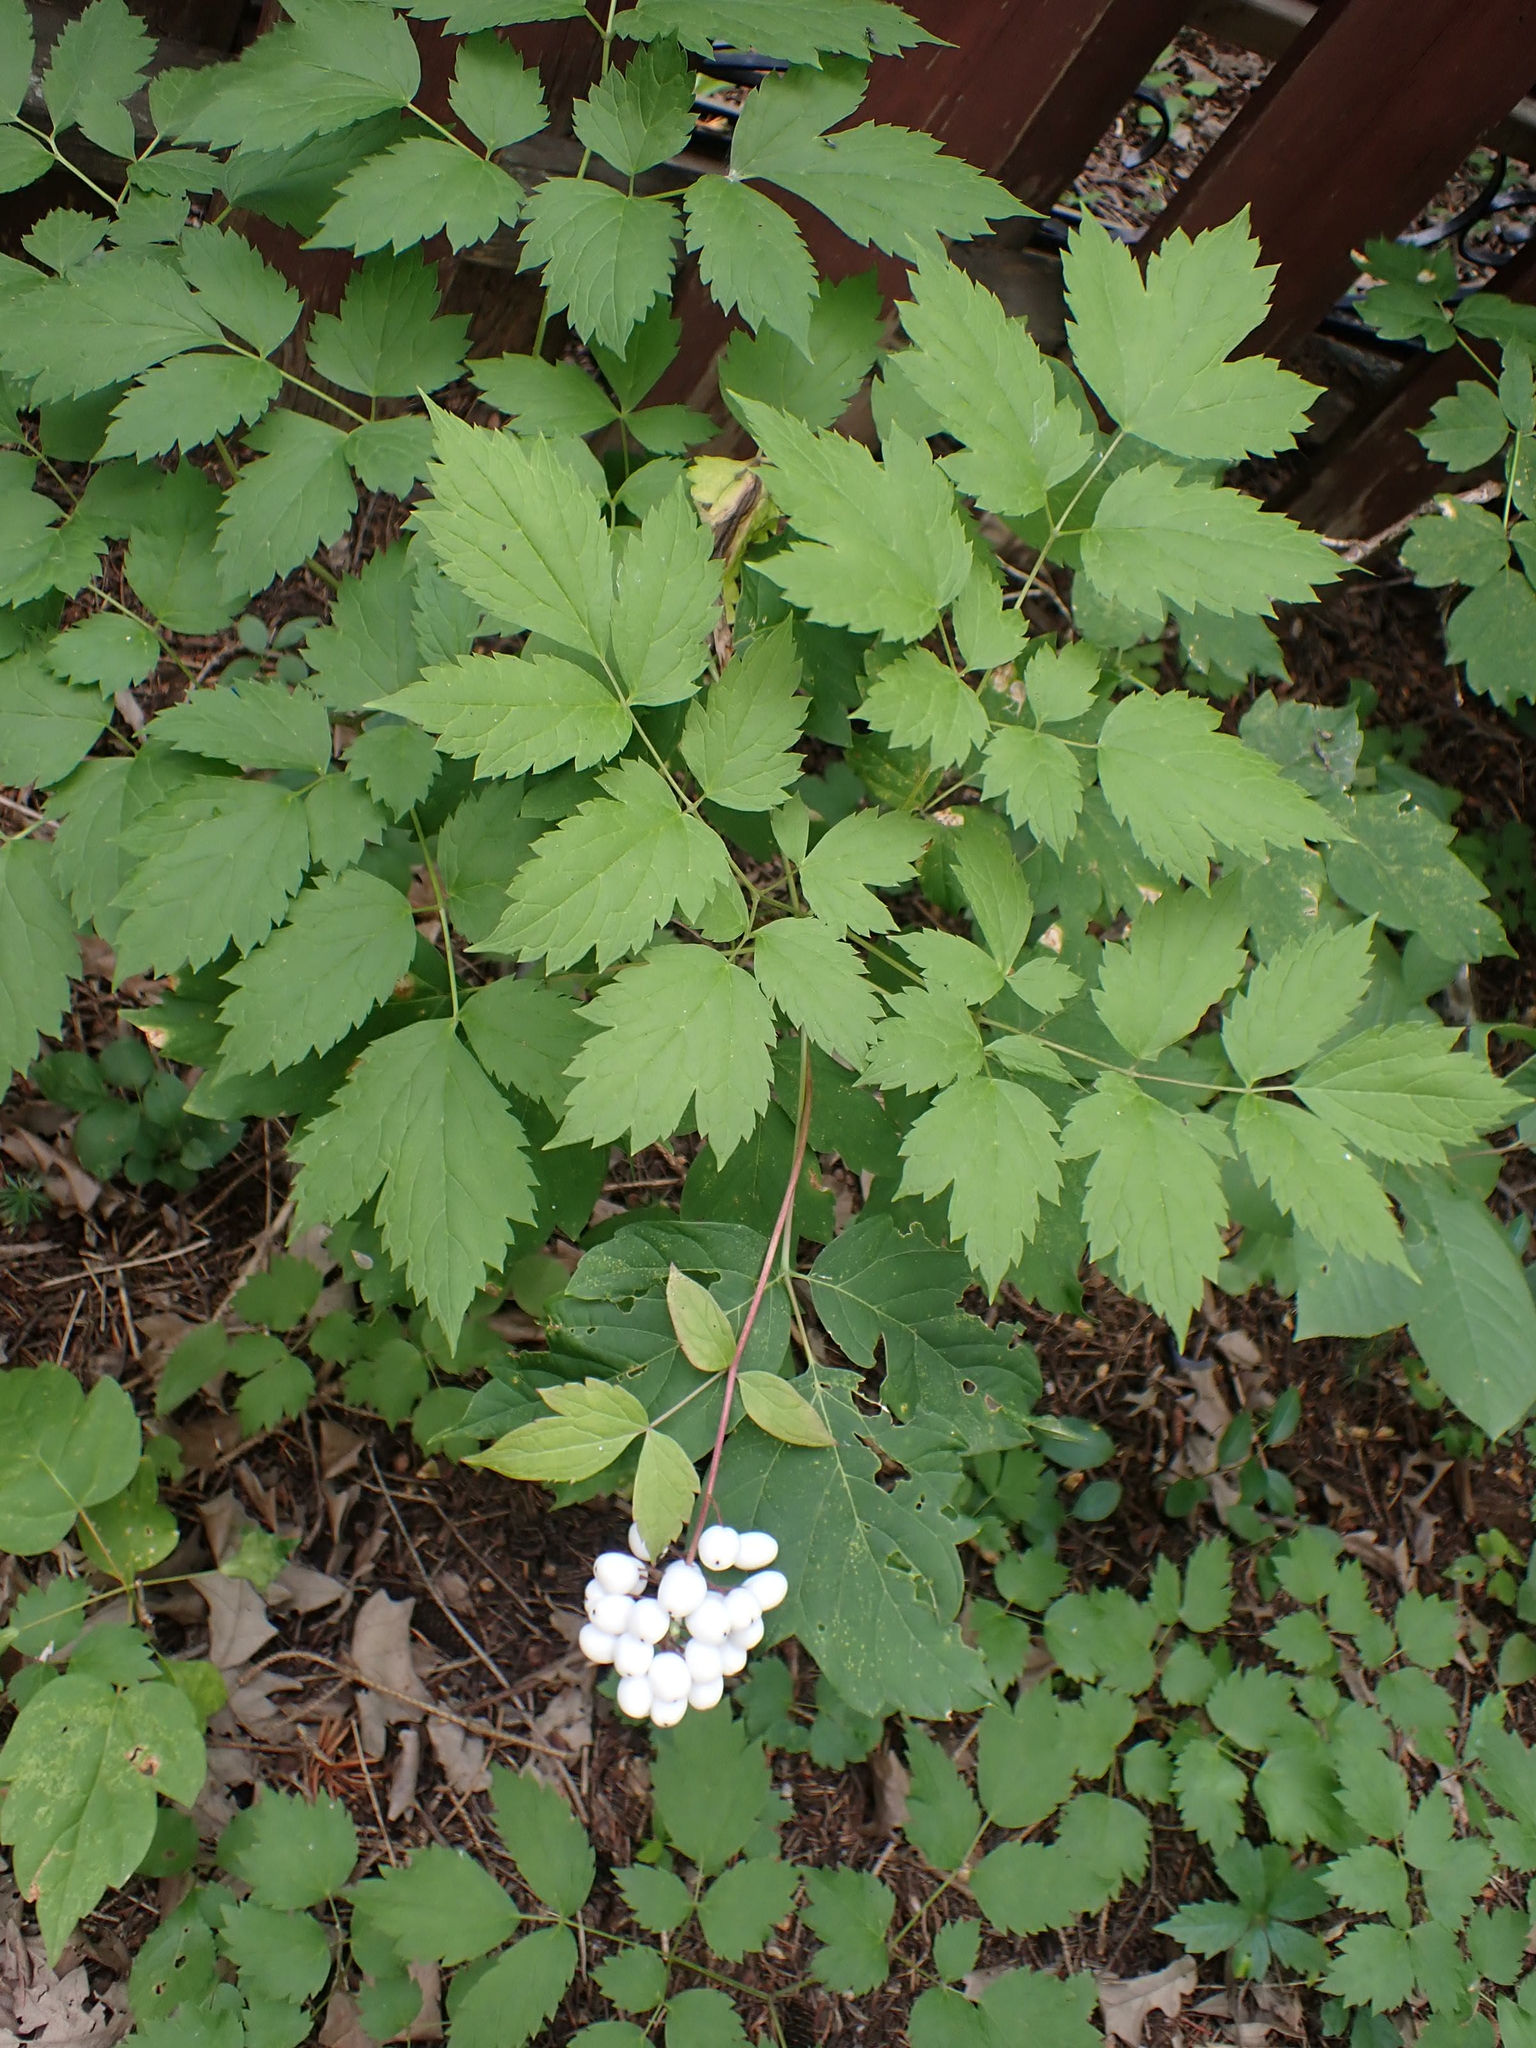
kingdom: Plantae
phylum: Tracheophyta
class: Magnoliopsida
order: Ranunculales
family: Ranunculaceae
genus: Actaea
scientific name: Actaea rubra
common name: Red baneberry
